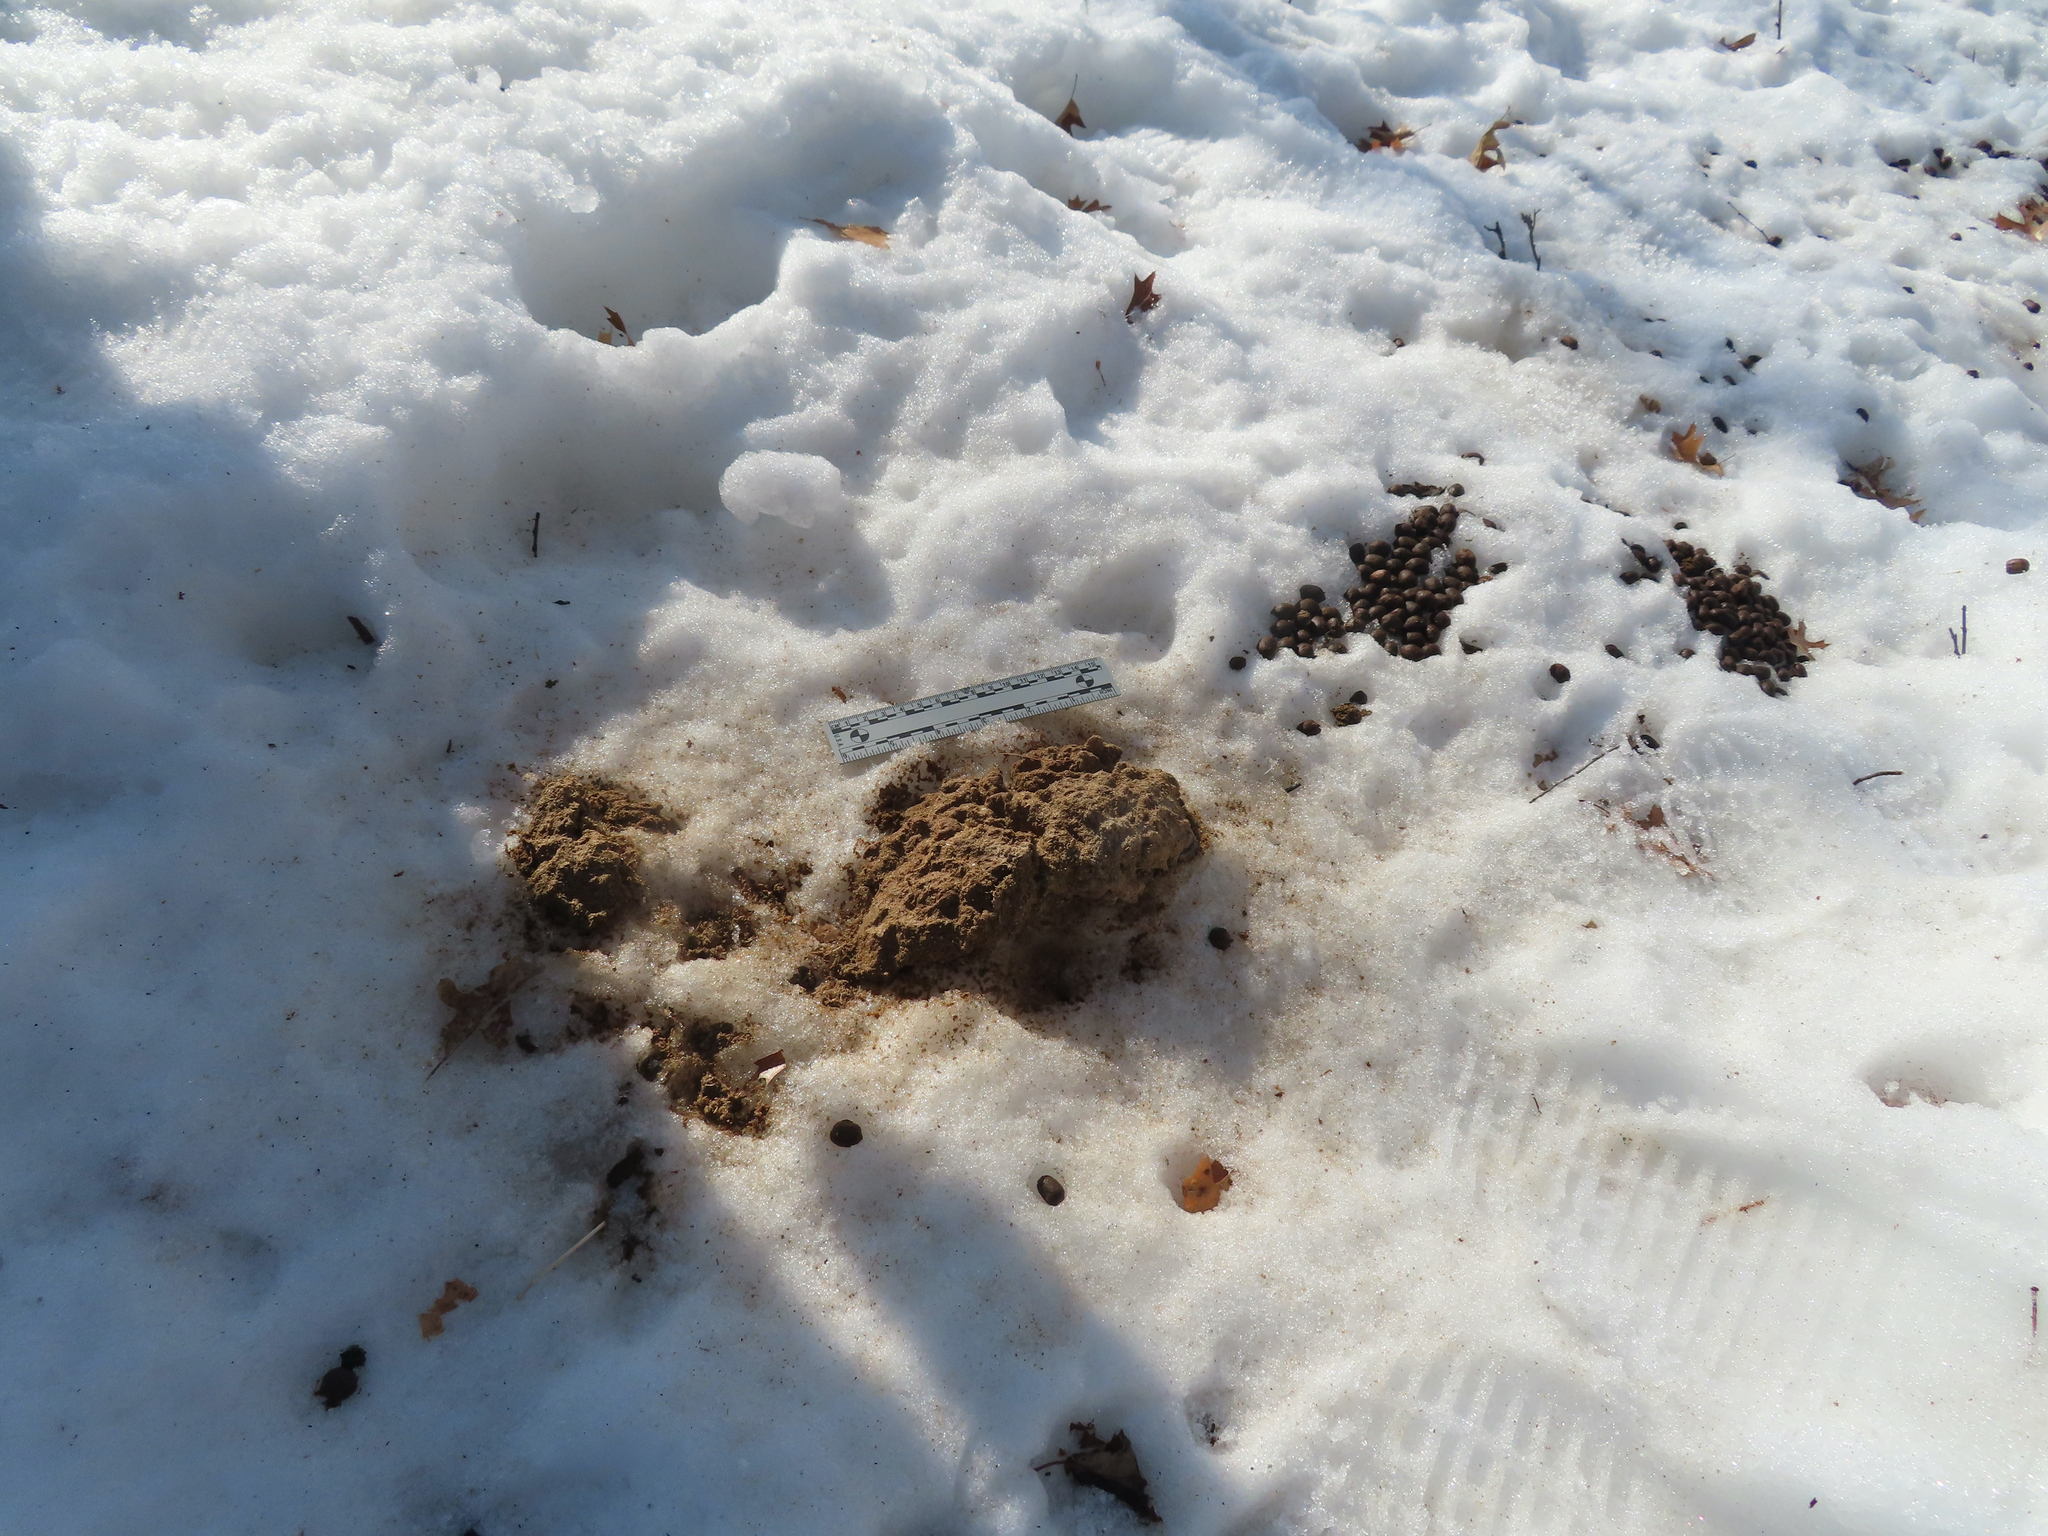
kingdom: Animalia
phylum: Chordata
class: Mammalia
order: Artiodactyla
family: Cervidae
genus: Odocoileus
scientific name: Odocoileus virginianus
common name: White-tailed deer
